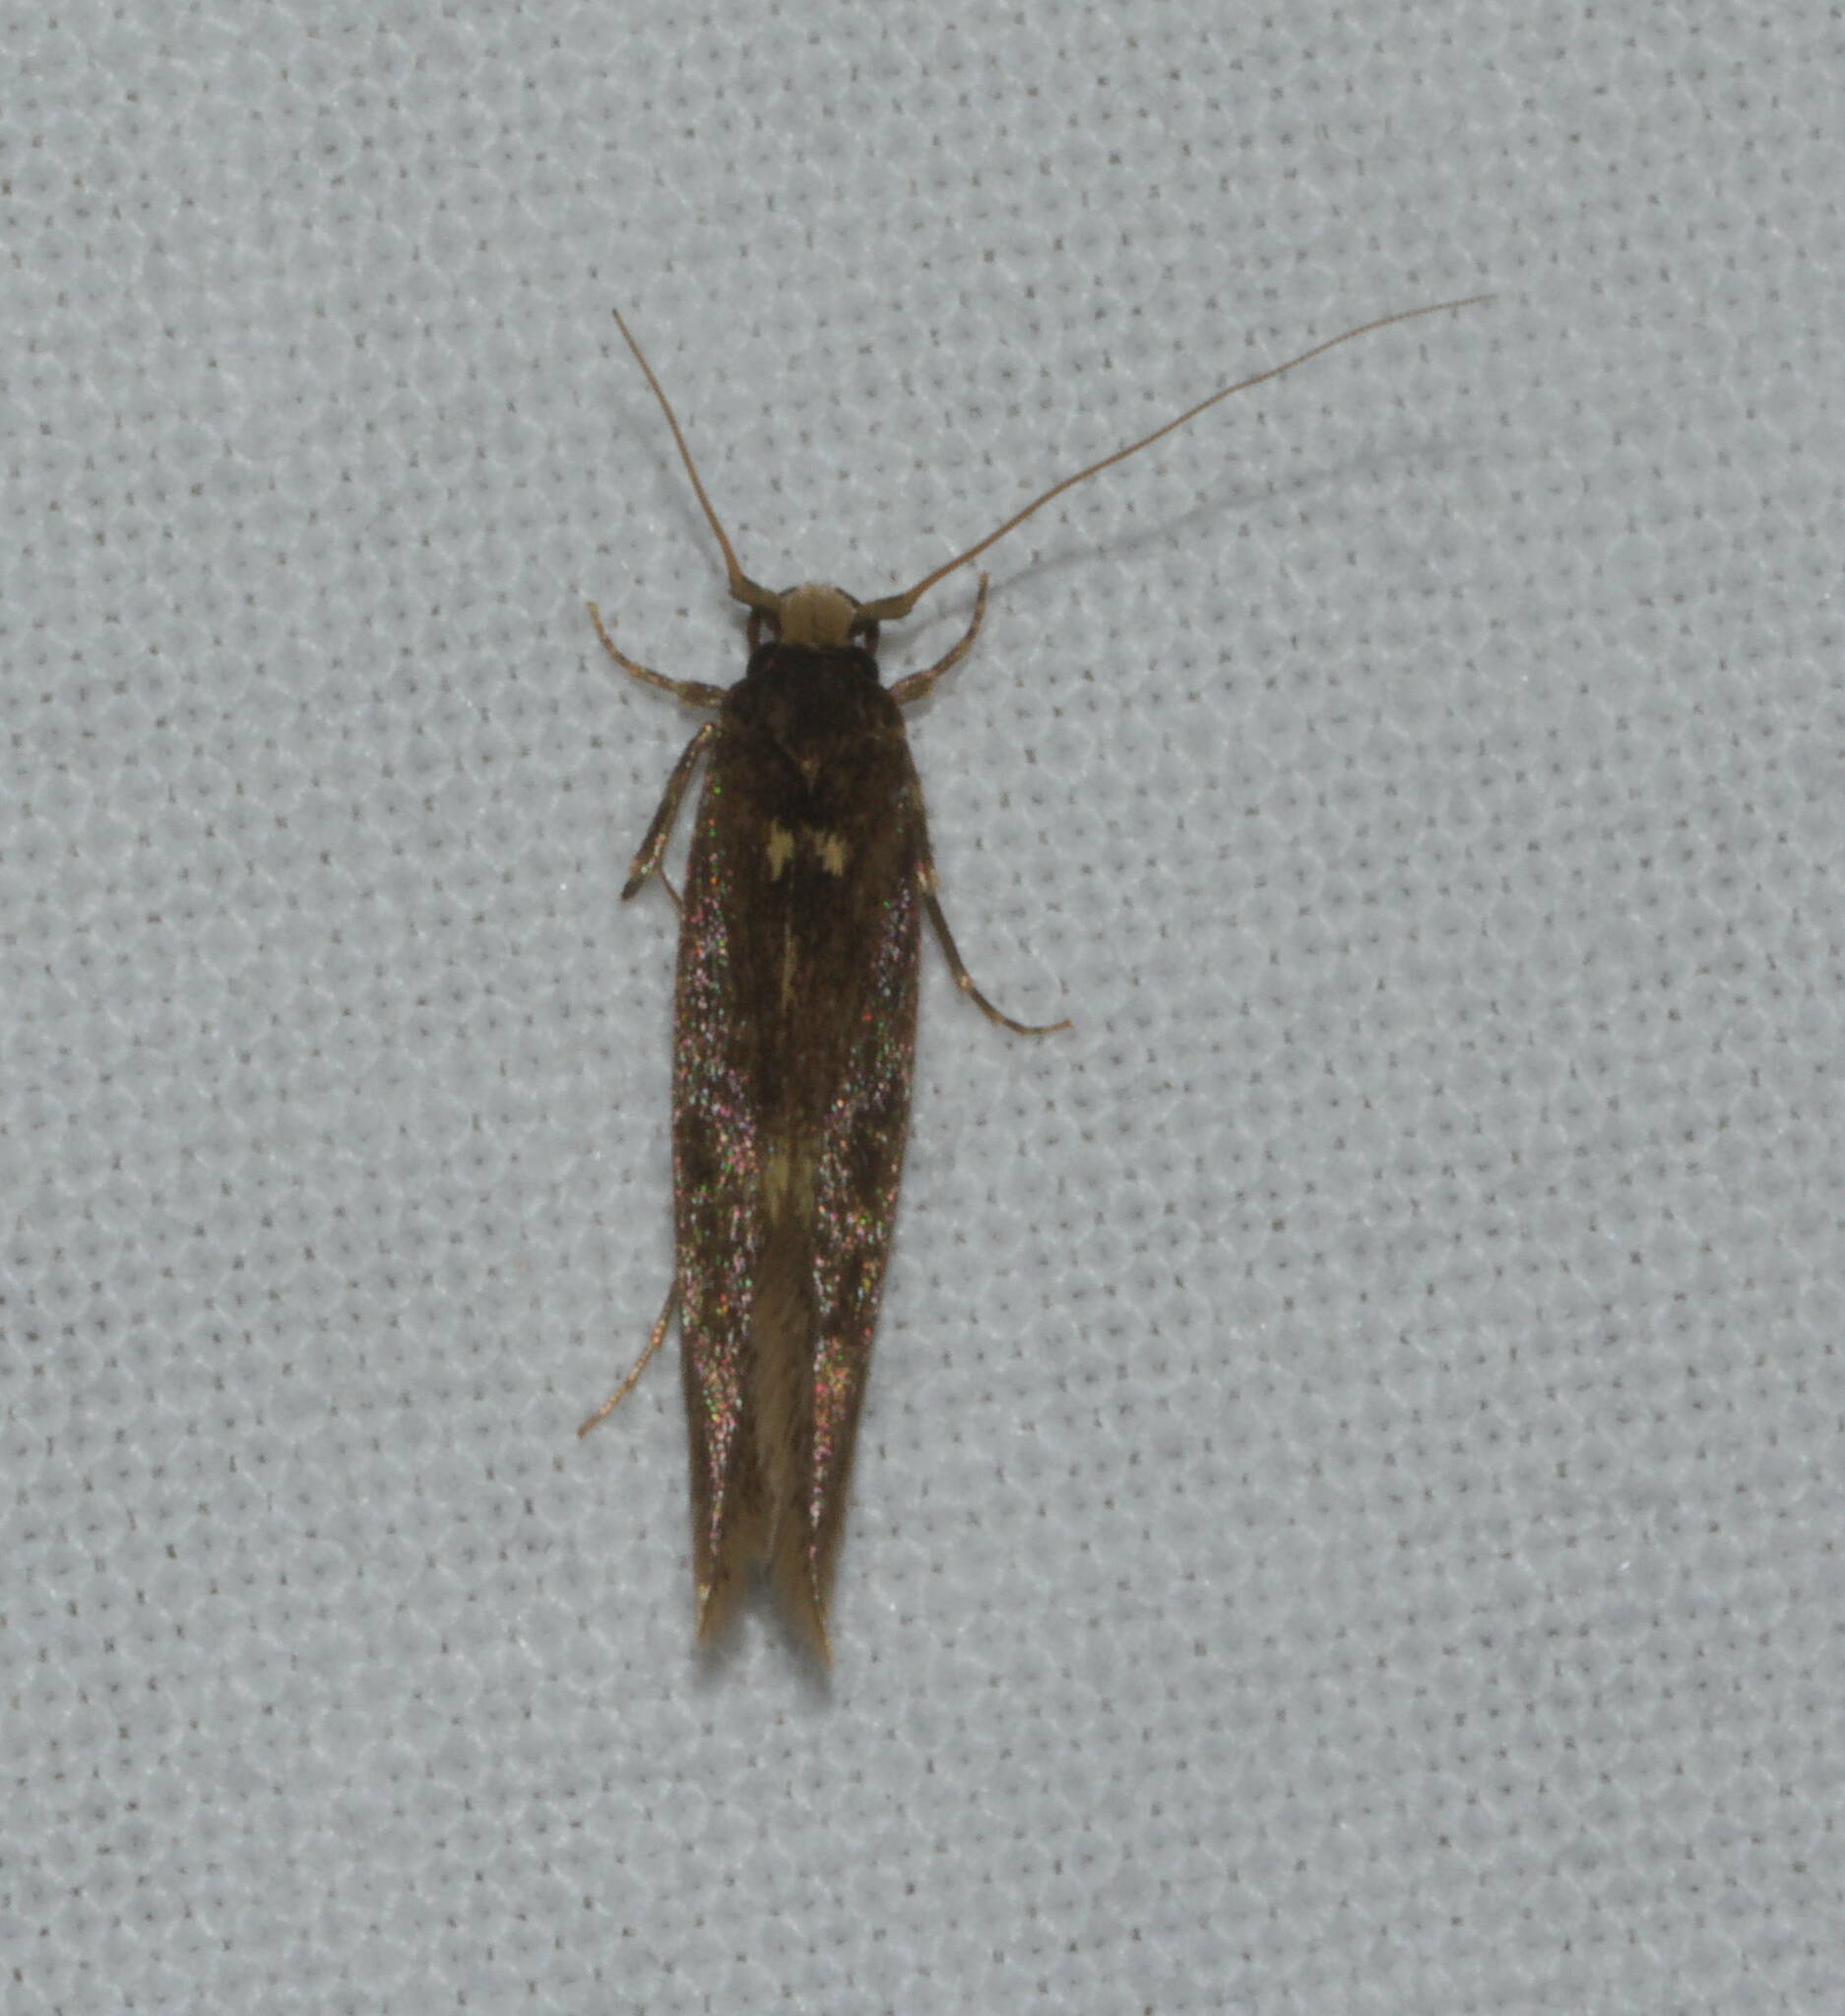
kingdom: Animalia
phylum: Arthropoda
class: Insecta
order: Lepidoptera
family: Tineidae
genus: Opogona
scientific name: Opogona omoscopa
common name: Moth
